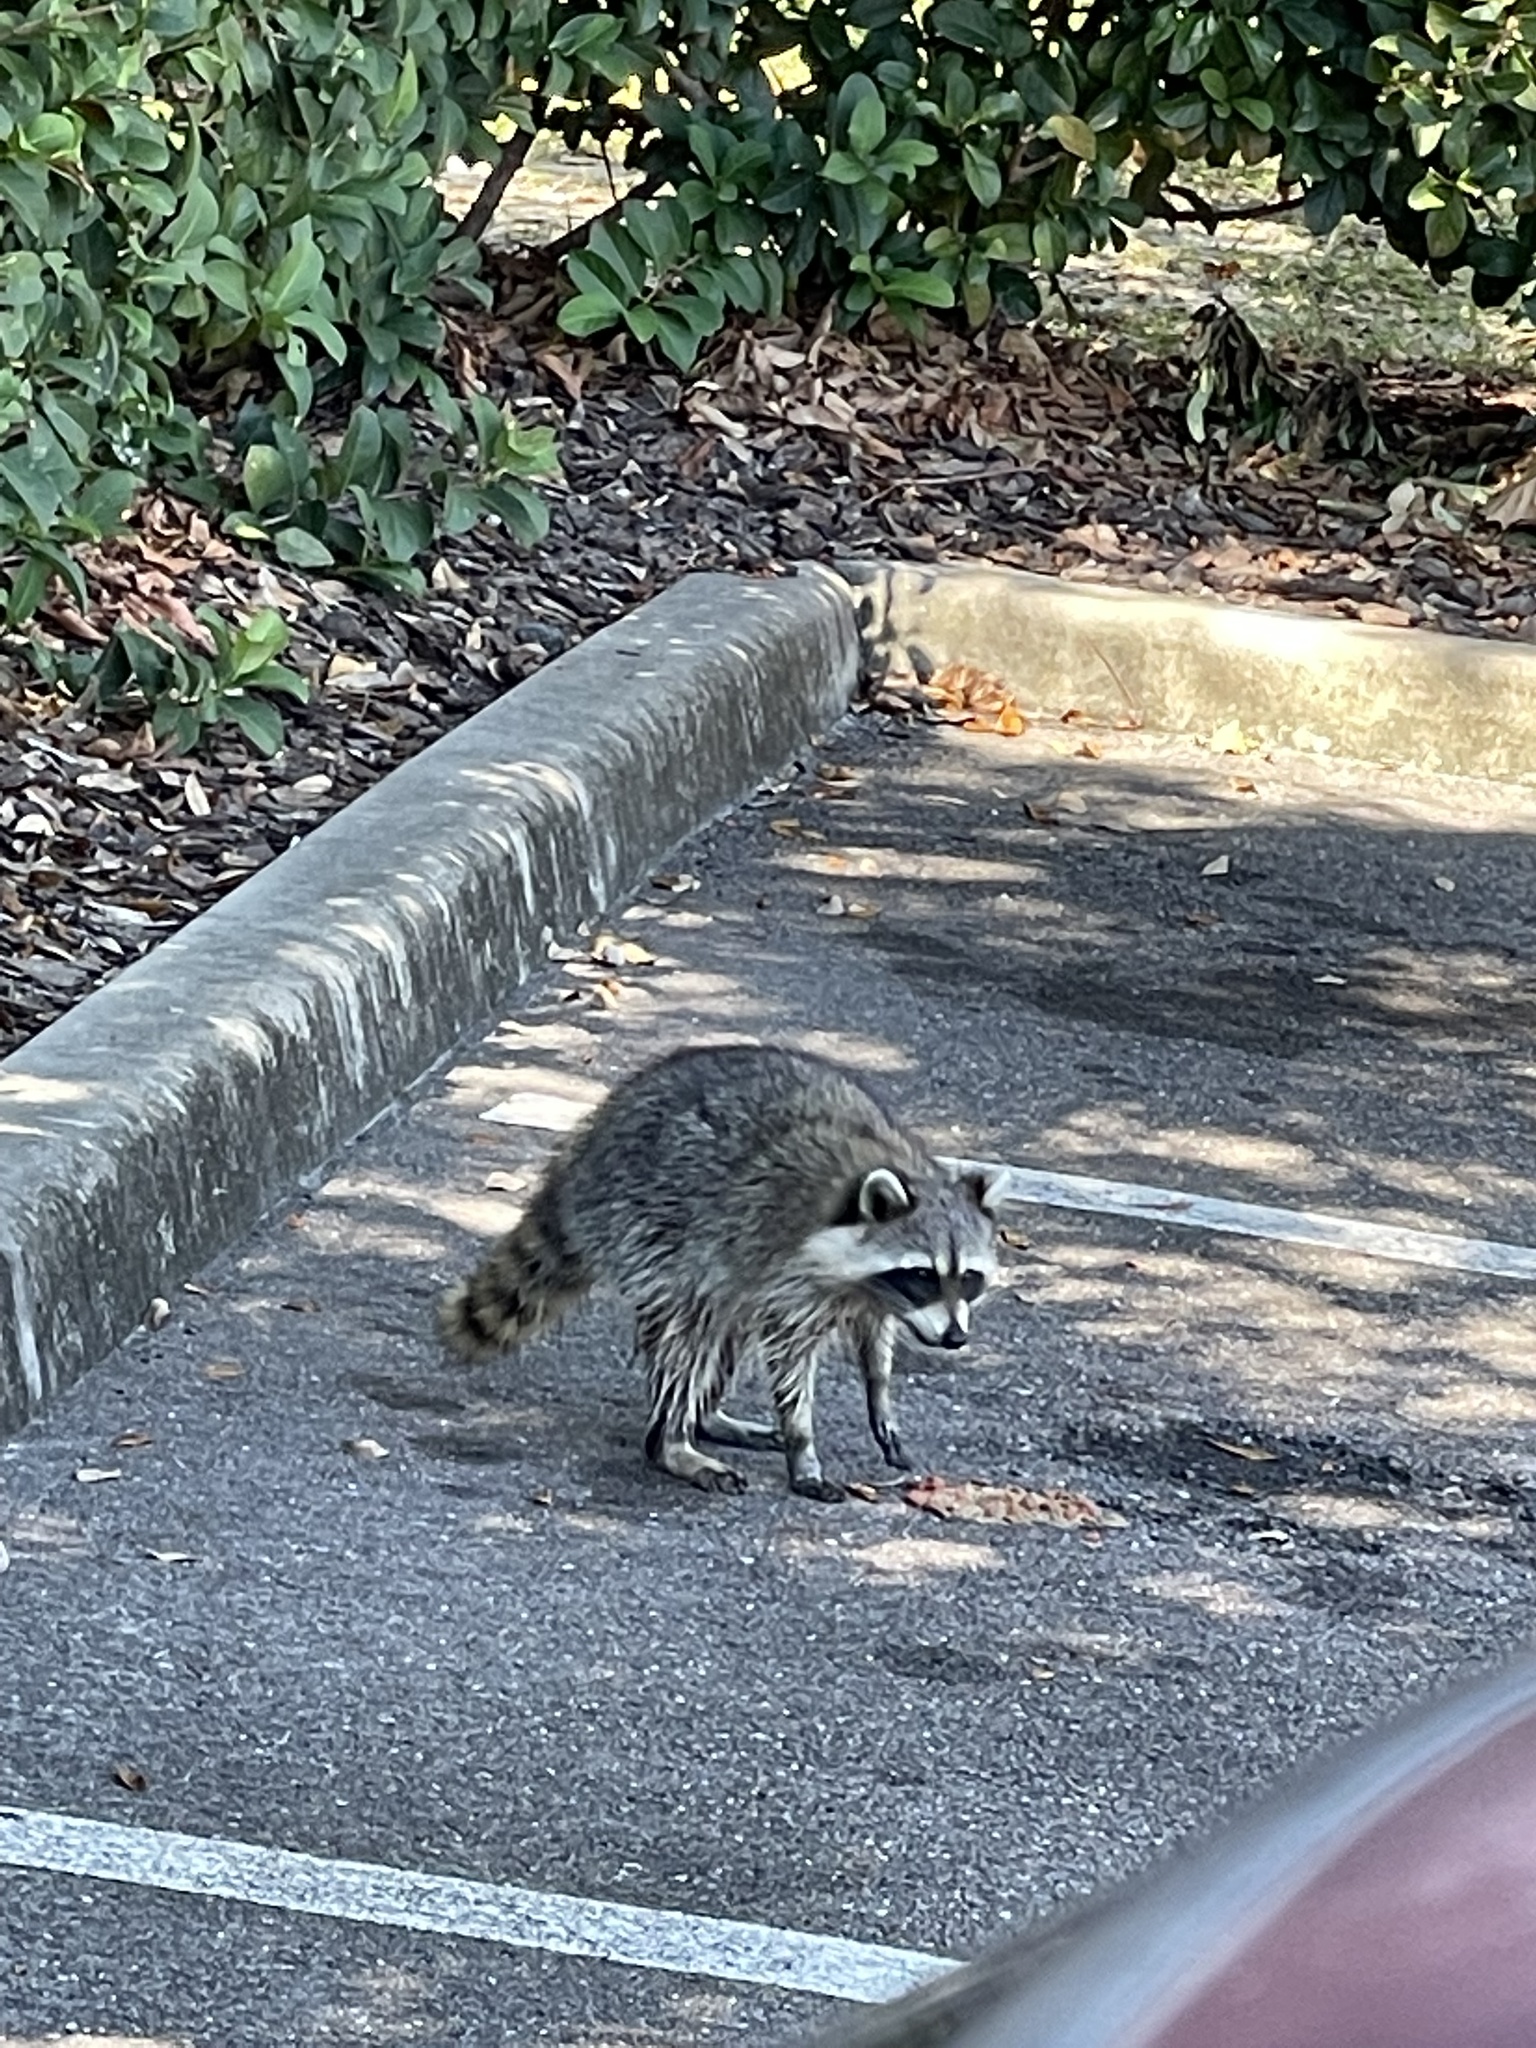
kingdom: Animalia
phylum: Chordata
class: Mammalia
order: Carnivora
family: Procyonidae
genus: Procyon
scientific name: Procyon lotor
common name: Raccoon
